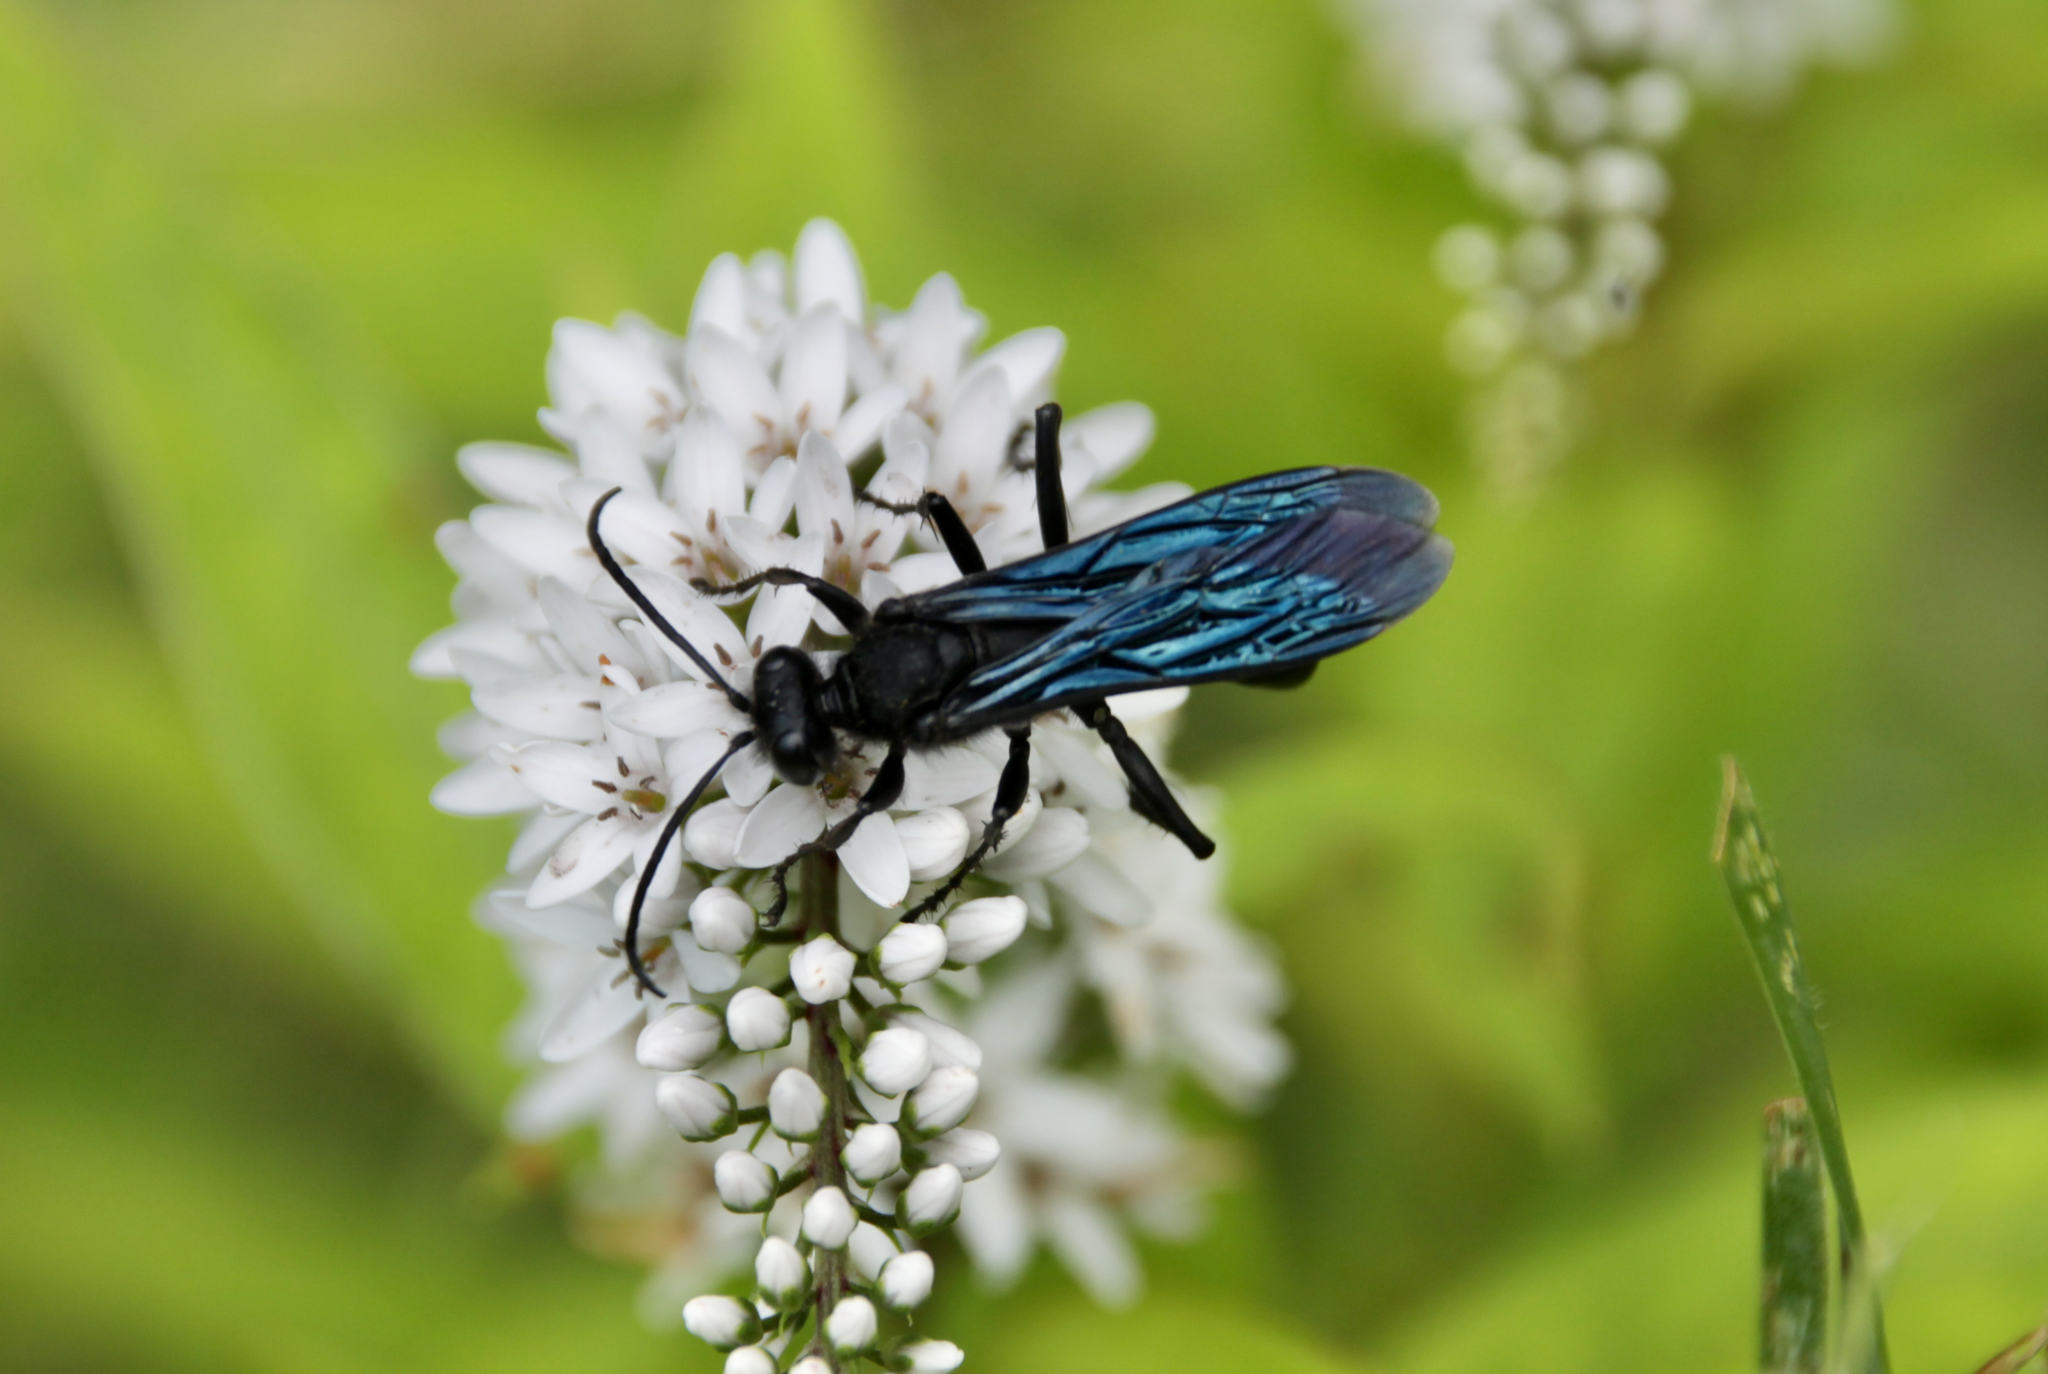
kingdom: Animalia
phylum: Arthropoda
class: Insecta
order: Hymenoptera
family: Sphecidae
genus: Sphex
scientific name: Sphex pensylvanicus
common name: Great black digger wasp
